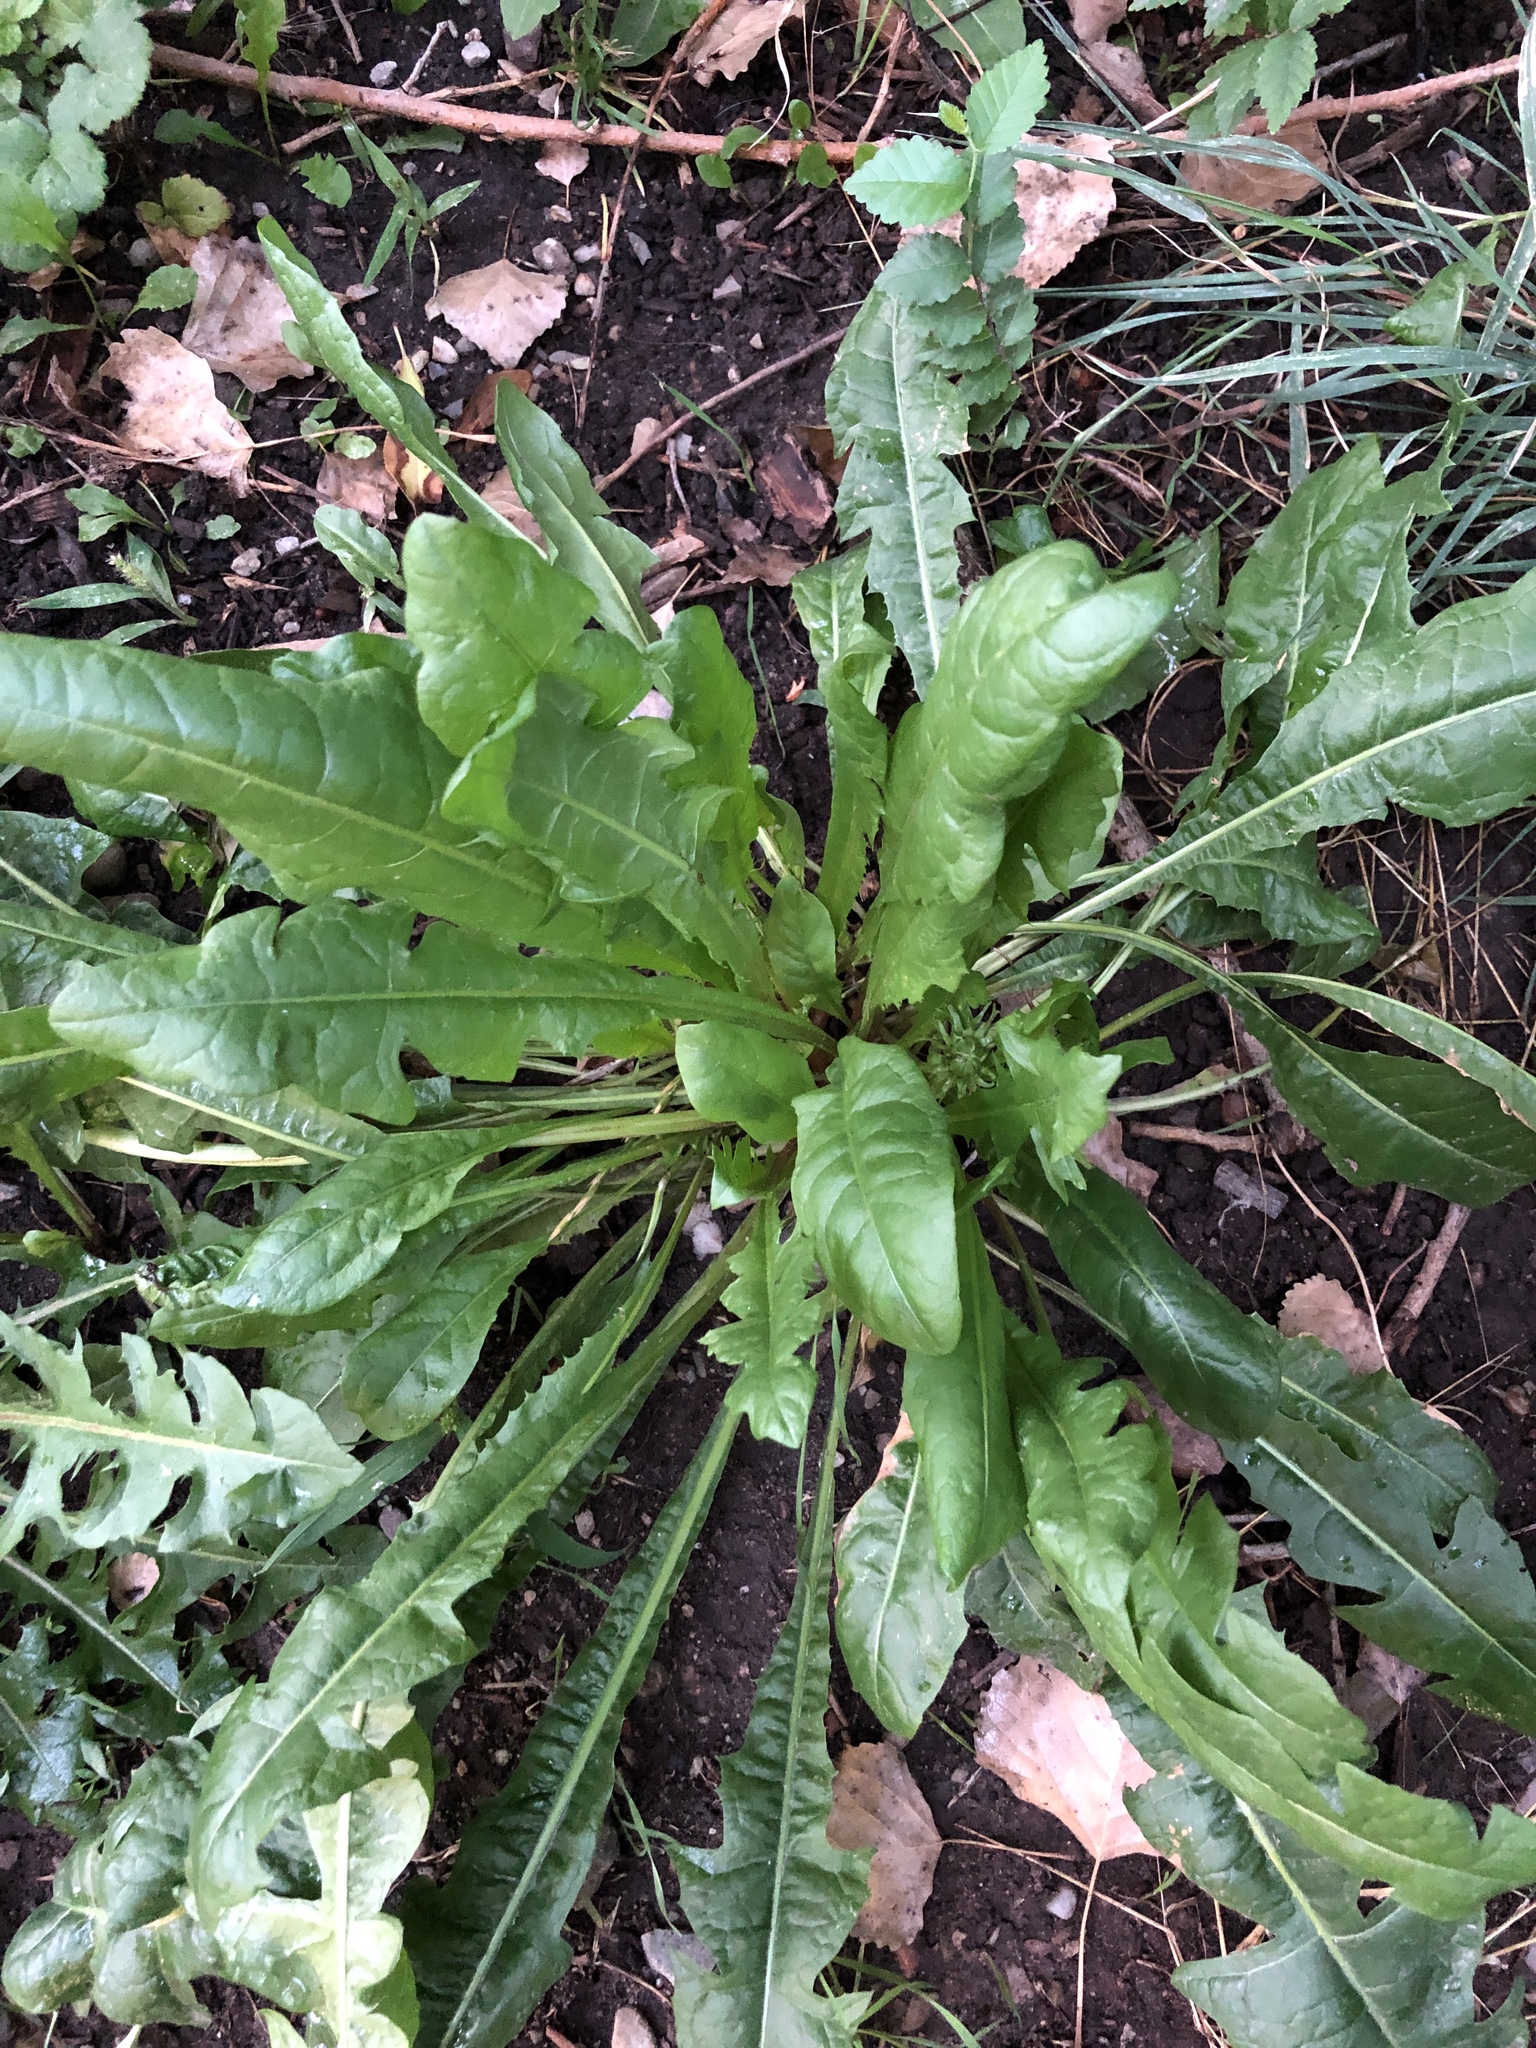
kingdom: Plantae
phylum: Tracheophyta
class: Magnoliopsida
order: Asterales
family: Asteraceae
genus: Taraxacum
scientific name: Taraxacum officinale
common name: Common dandelion
